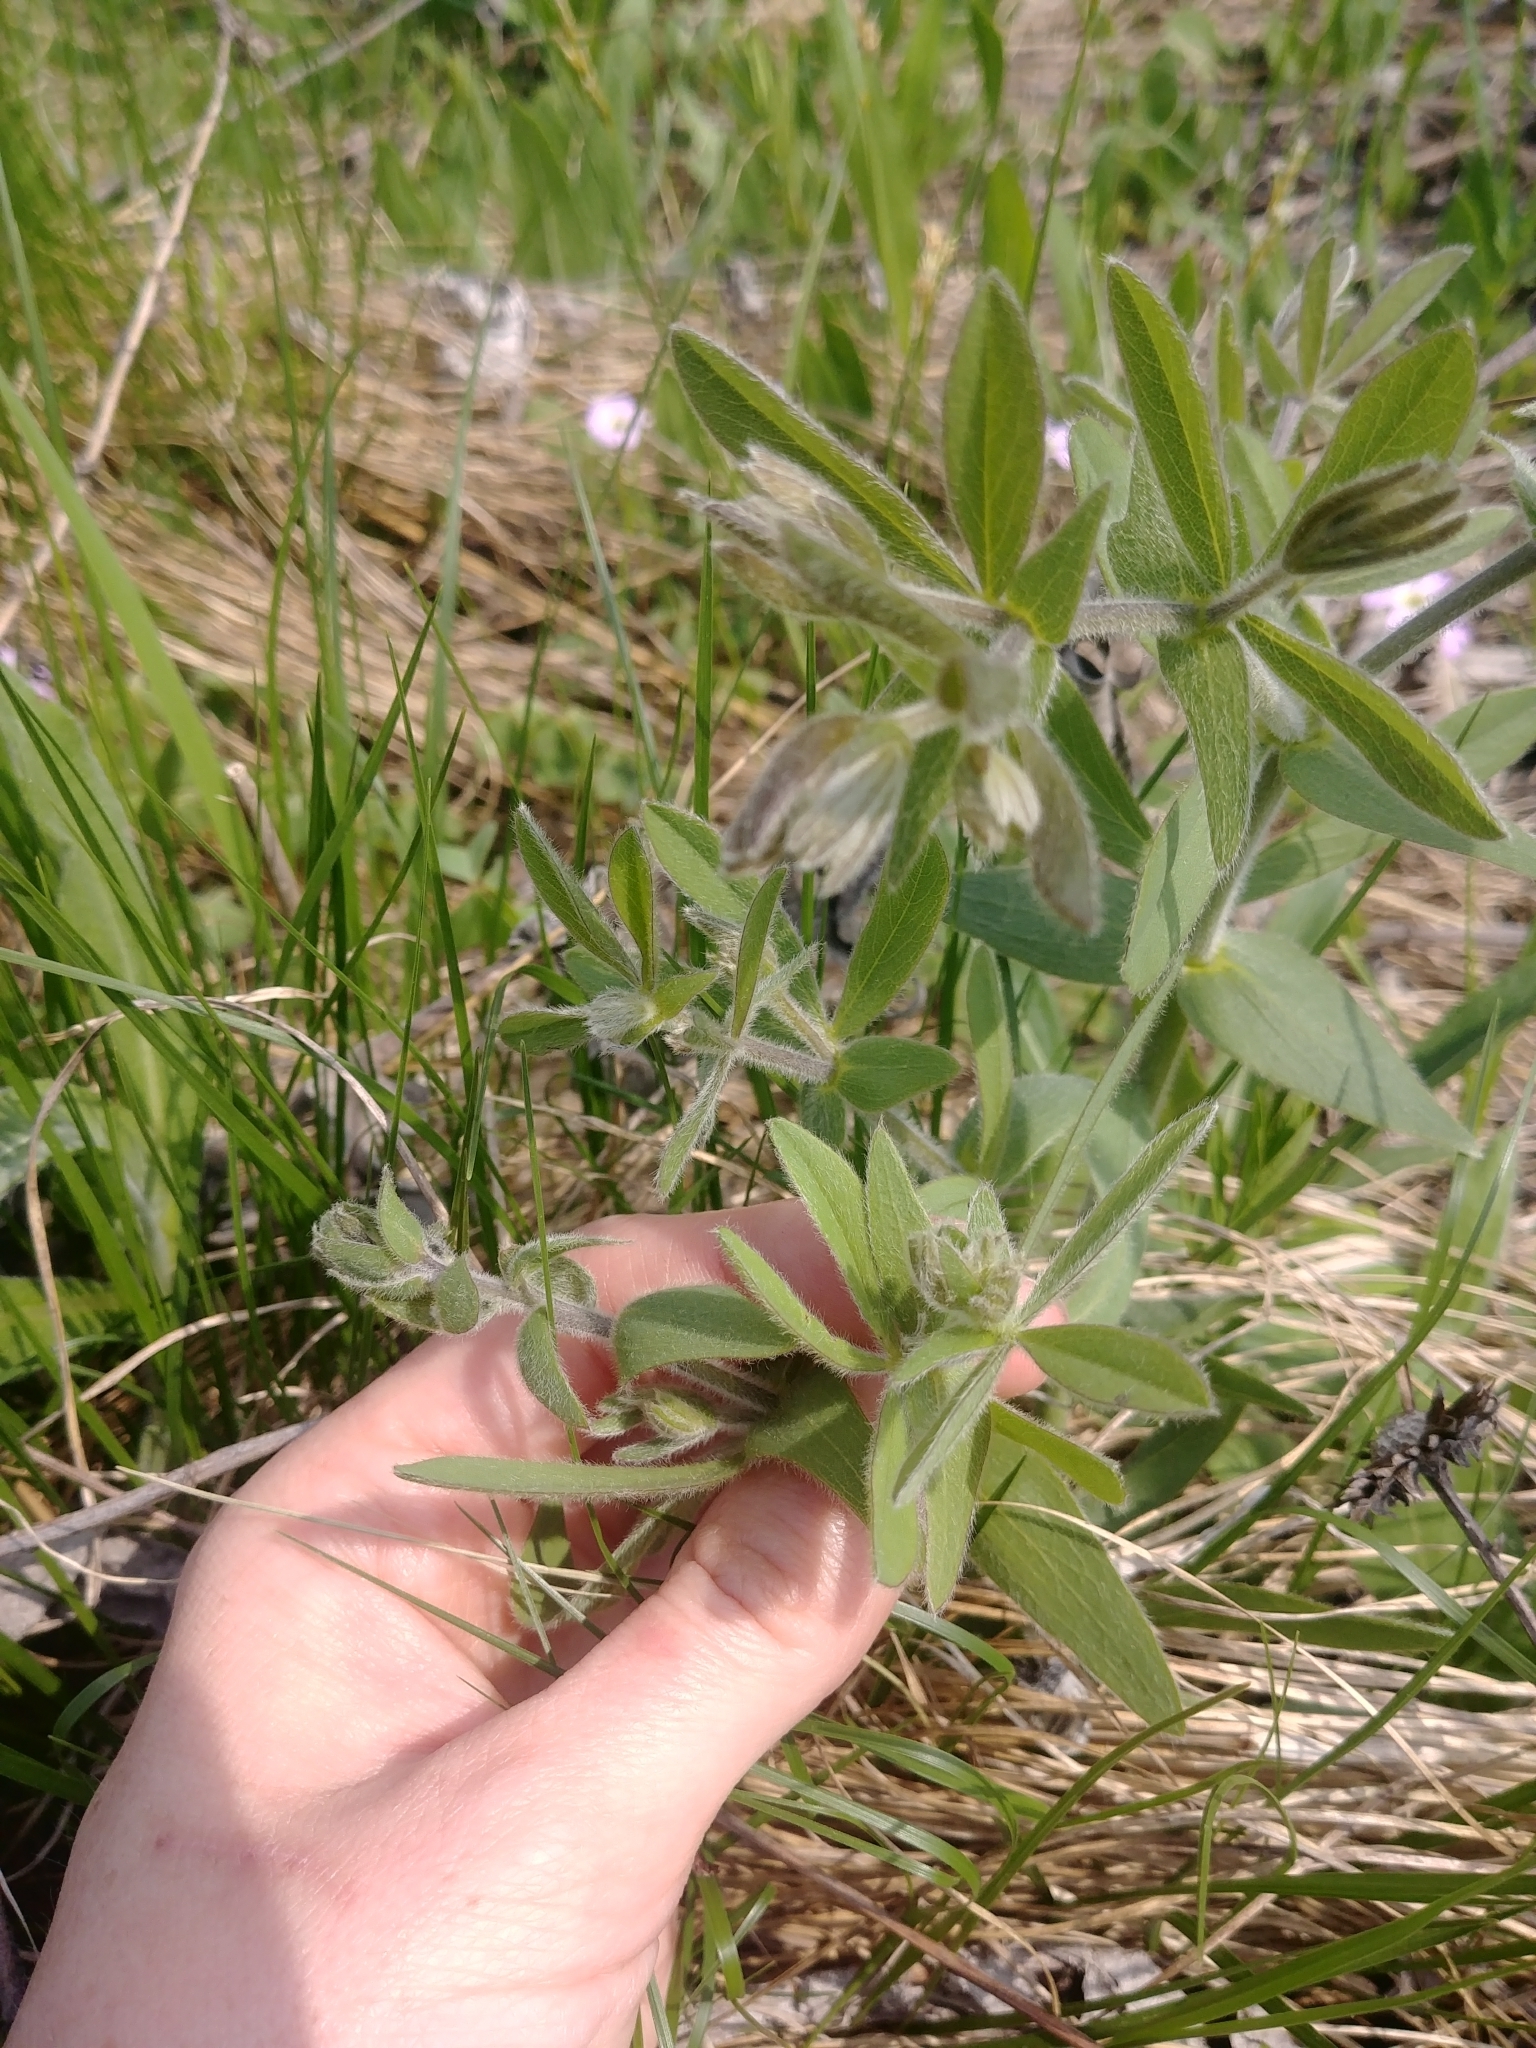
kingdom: Plantae
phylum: Tracheophyta
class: Magnoliopsida
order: Fabales
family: Fabaceae
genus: Baptisia
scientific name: Baptisia bracteata
